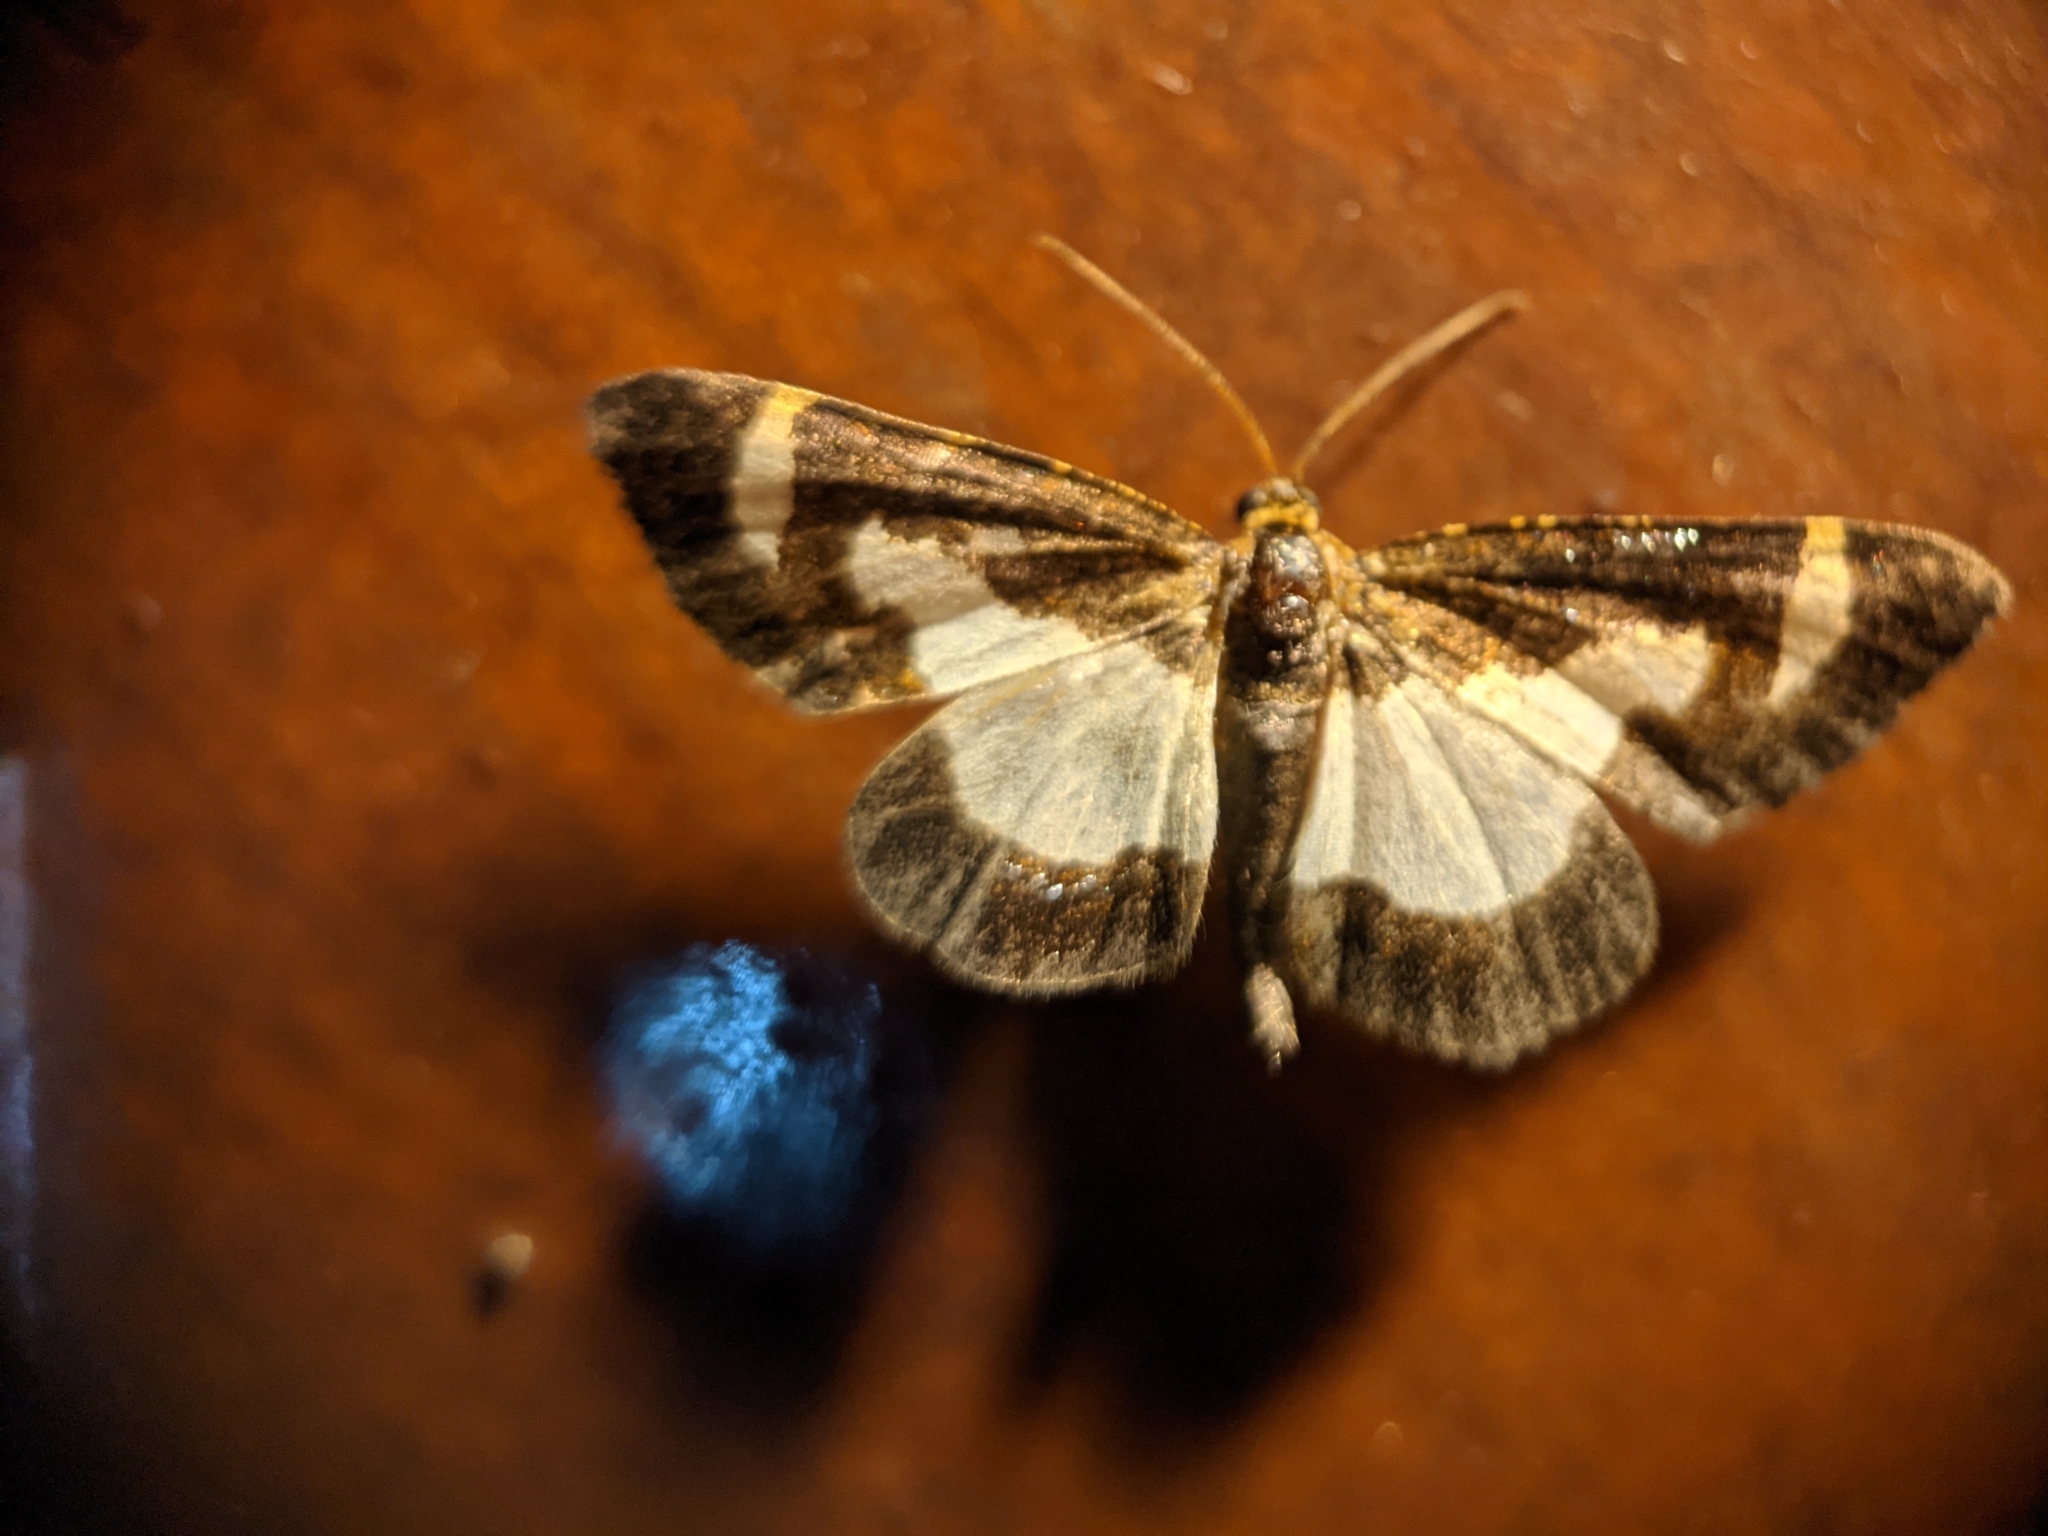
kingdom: Animalia
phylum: Arthropoda
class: Insecta
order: Lepidoptera
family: Geometridae
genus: Heliomata
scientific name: Heliomata cycladata
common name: Common spring moth
